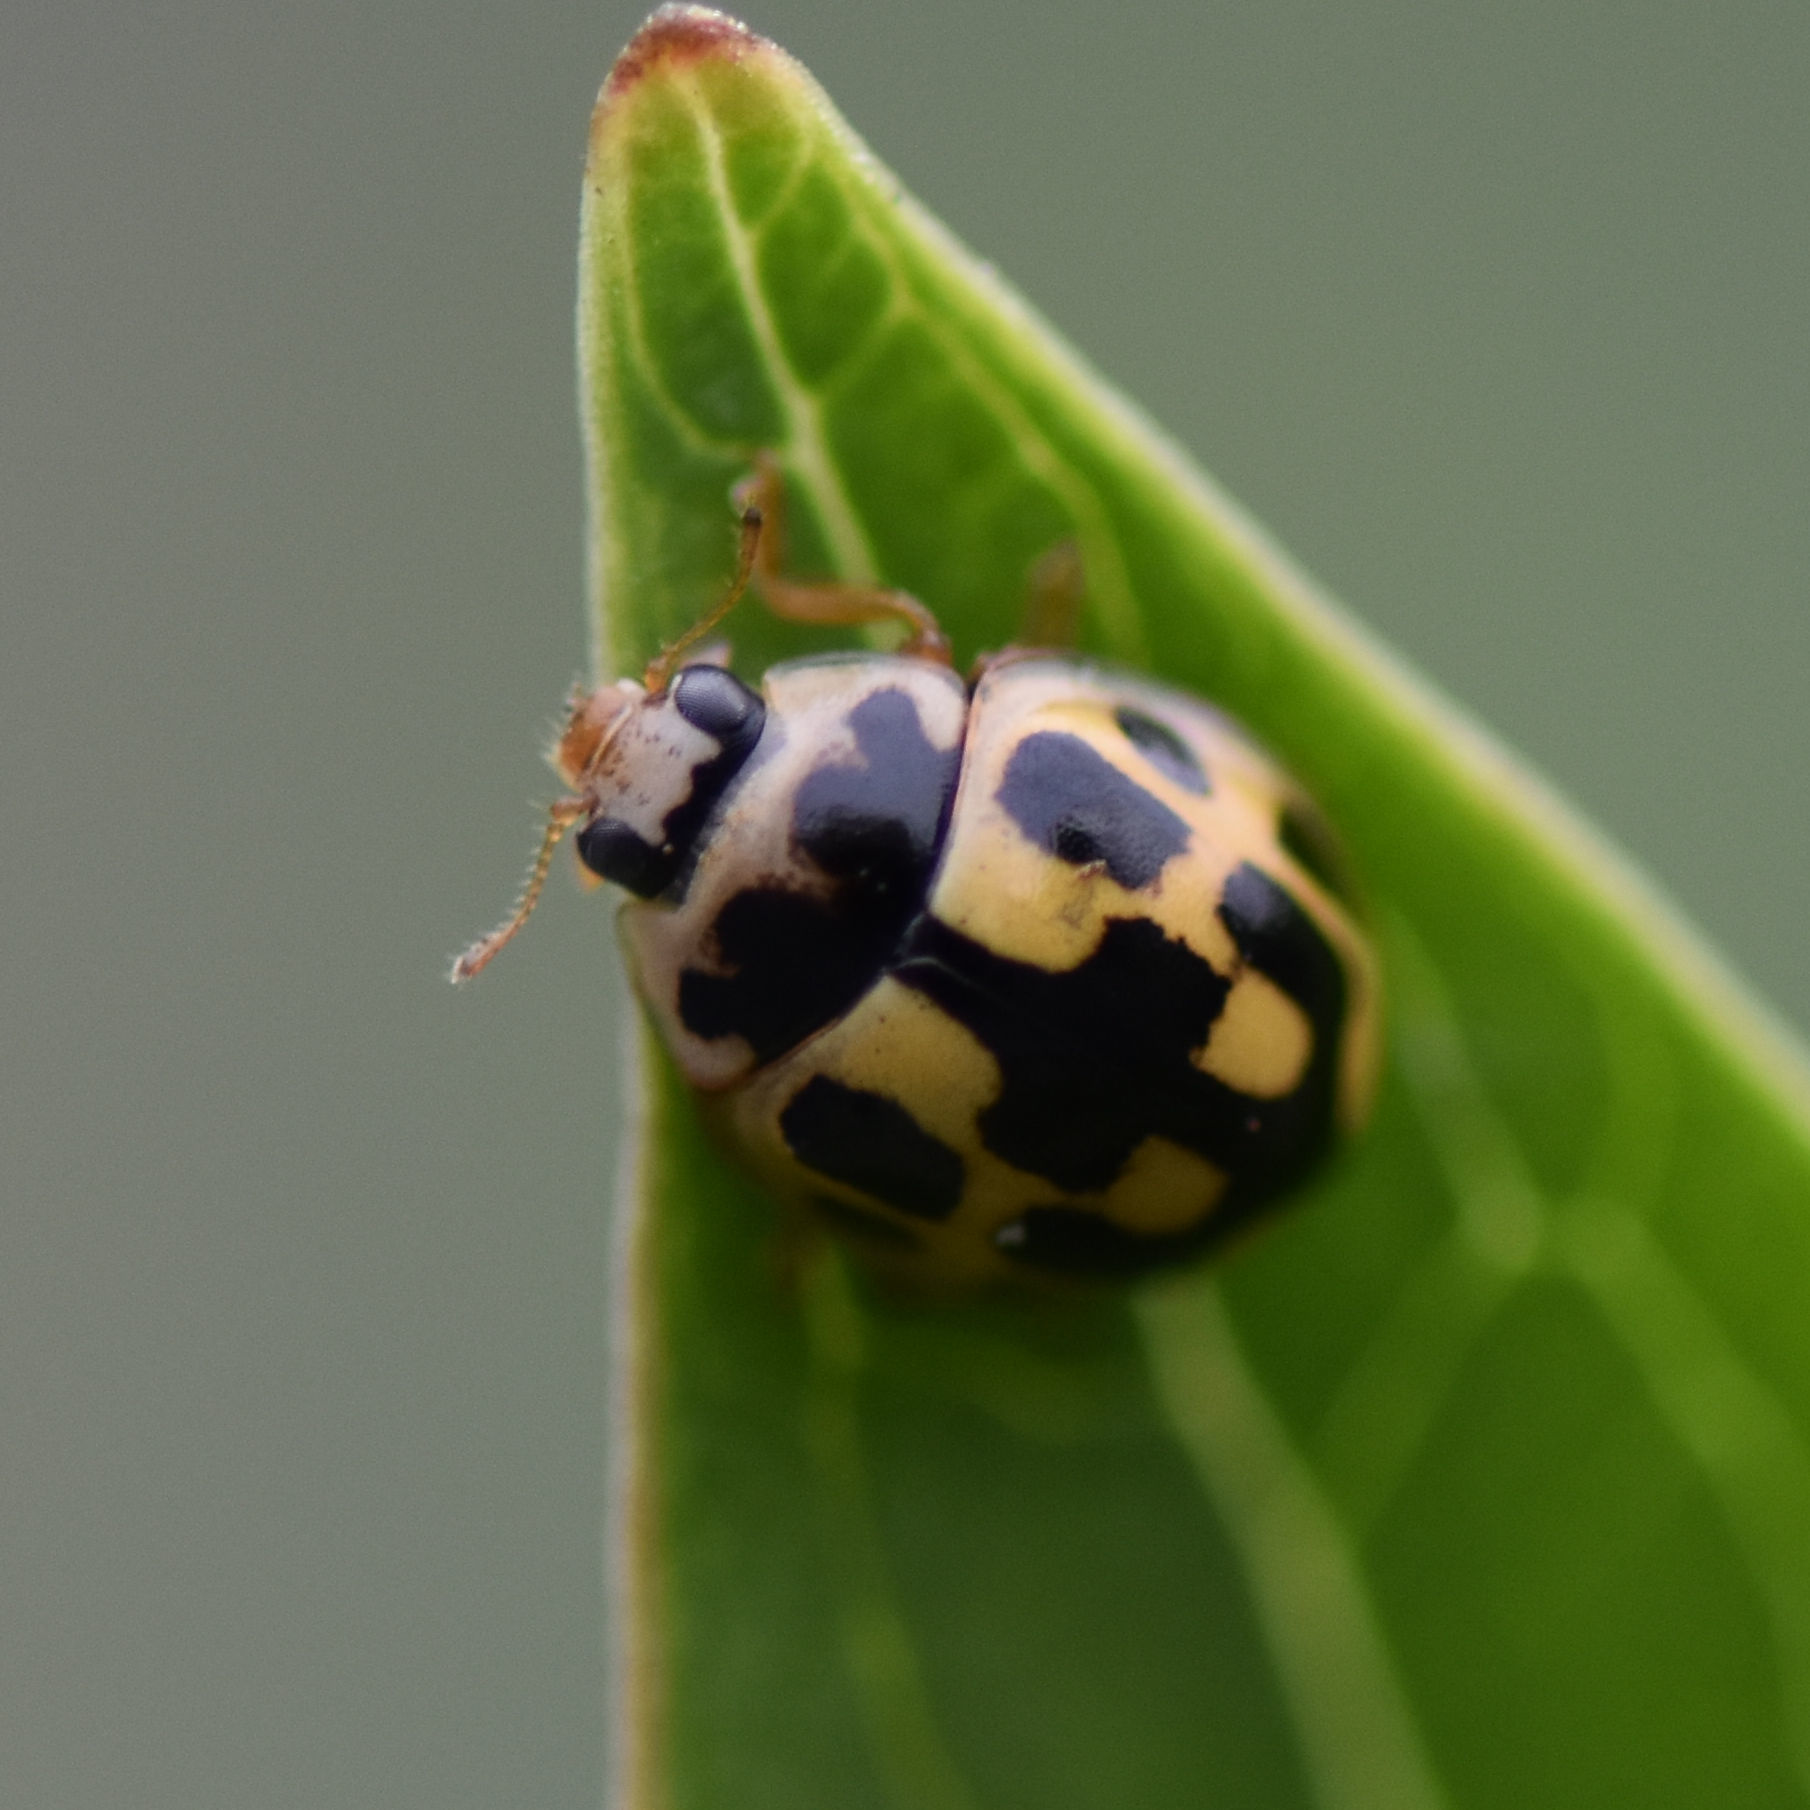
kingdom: Animalia
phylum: Arthropoda
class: Insecta
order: Coleoptera
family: Coccinellidae
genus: Propylaea
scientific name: Propylaea quatuordecimpunctata
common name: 14-spotted ladybird beetle
